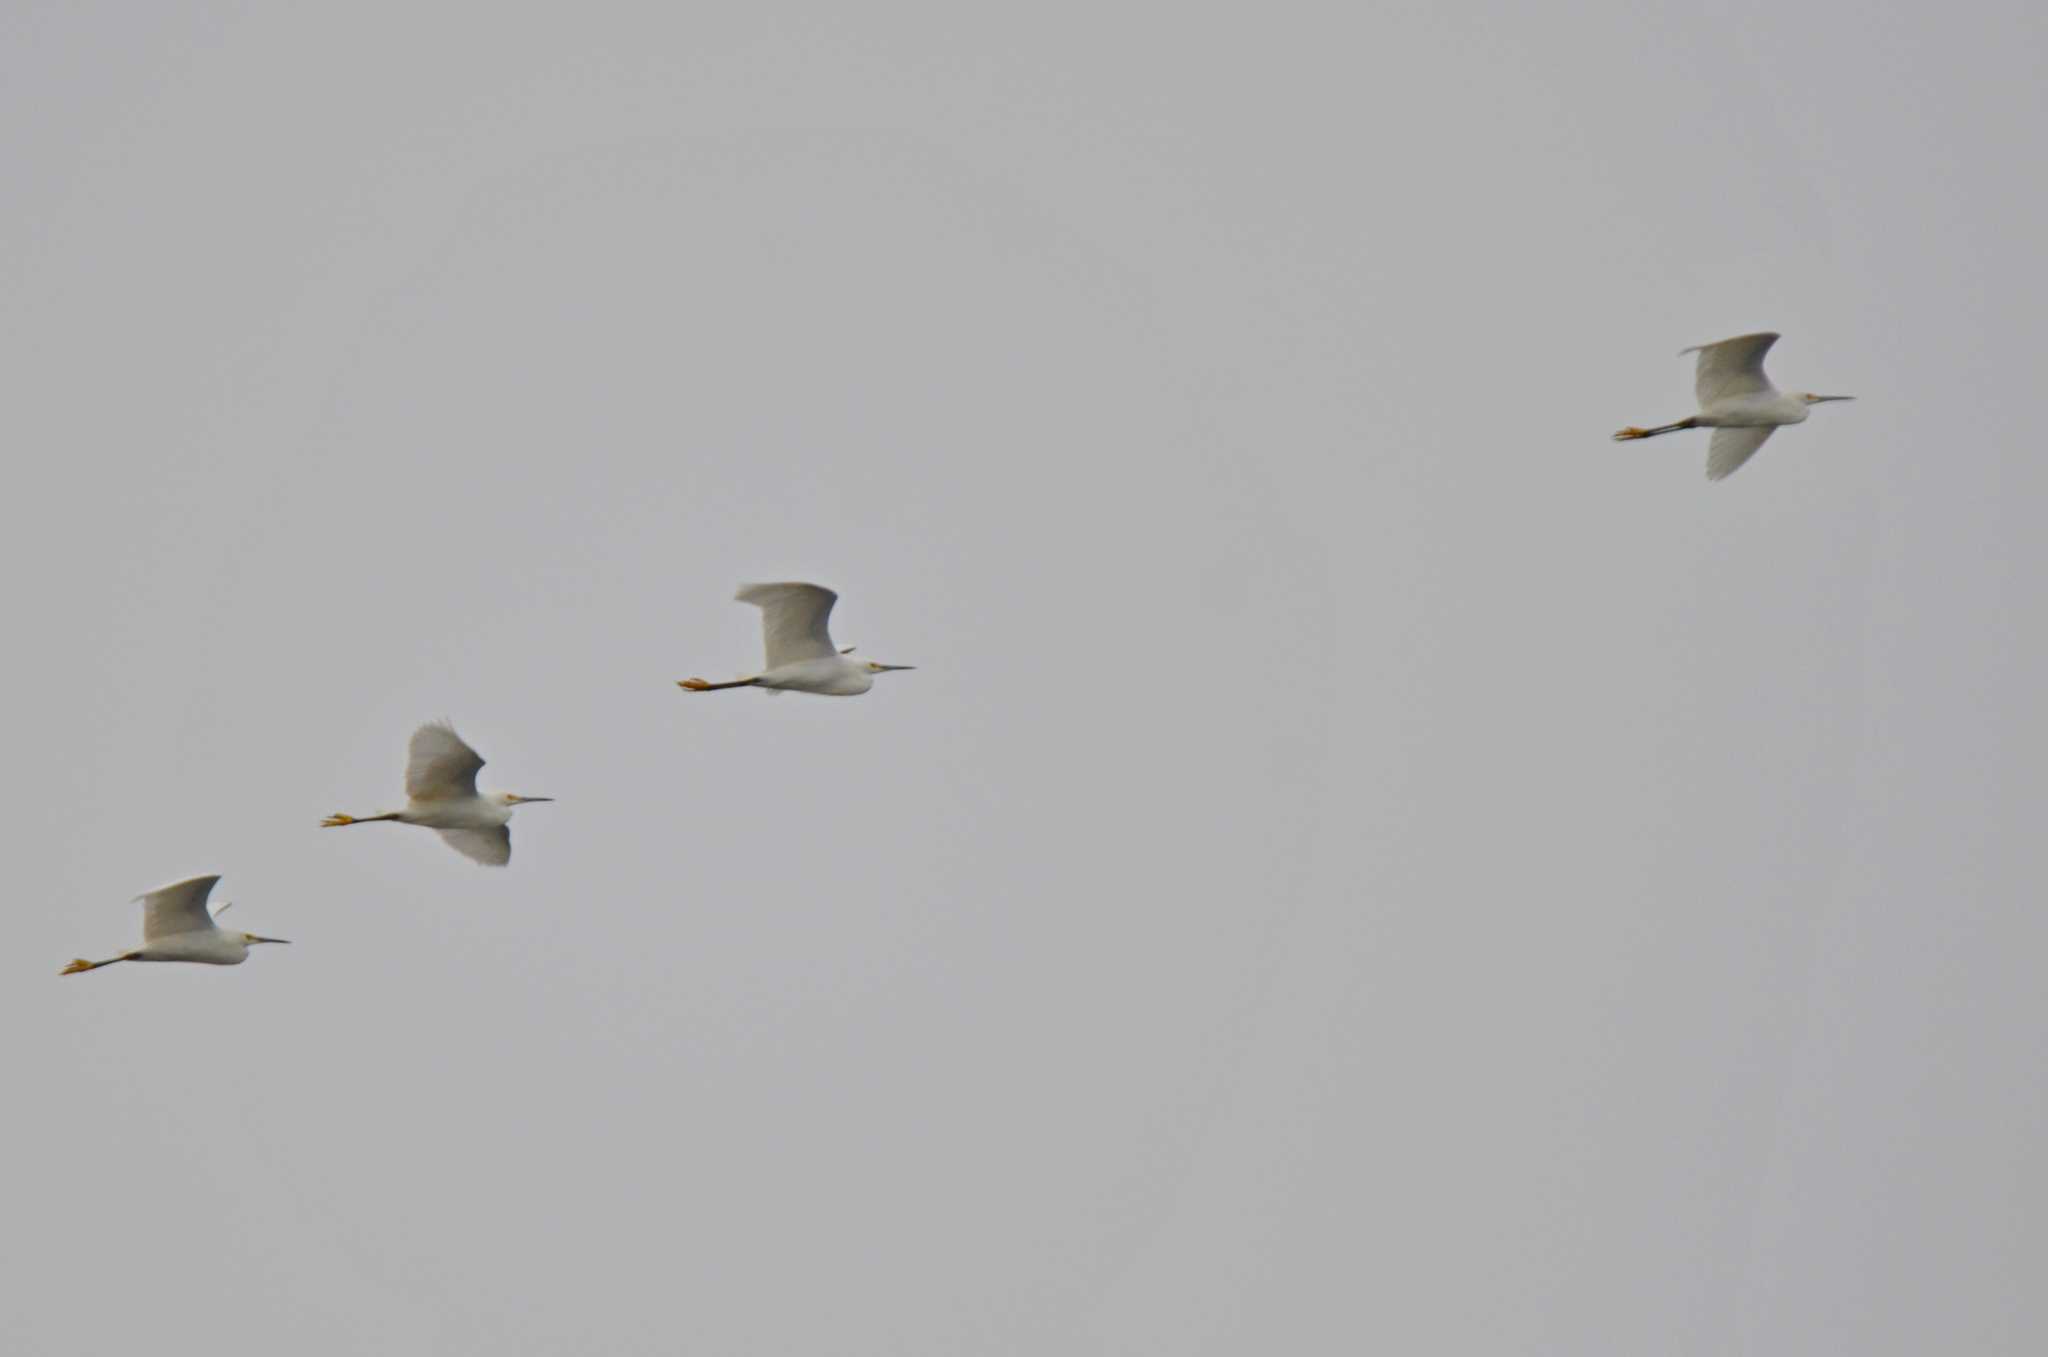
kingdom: Animalia
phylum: Chordata
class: Aves
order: Pelecaniformes
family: Ardeidae
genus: Egretta
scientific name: Egretta thula
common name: Snowy egret
